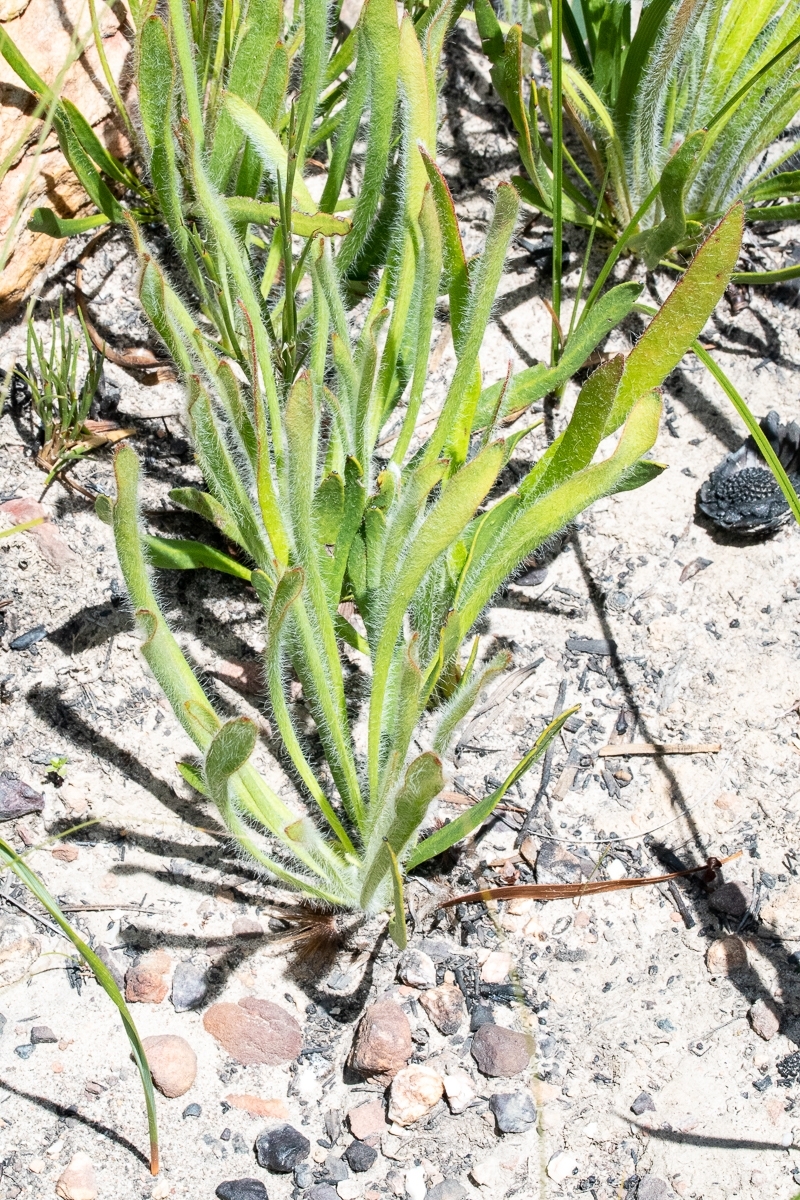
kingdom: Plantae
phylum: Tracheophyta
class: Magnoliopsida
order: Proteales
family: Proteaceae
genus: Protea
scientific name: Protea scabra
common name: Sandpaper-leaf sugarbush
